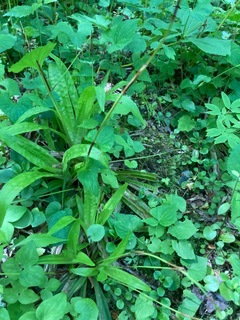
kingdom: Plantae
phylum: Tracheophyta
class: Liliopsida
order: Poales
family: Cyperaceae
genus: Carex
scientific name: Carex plantaginea
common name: Plantain-leaved sedge
